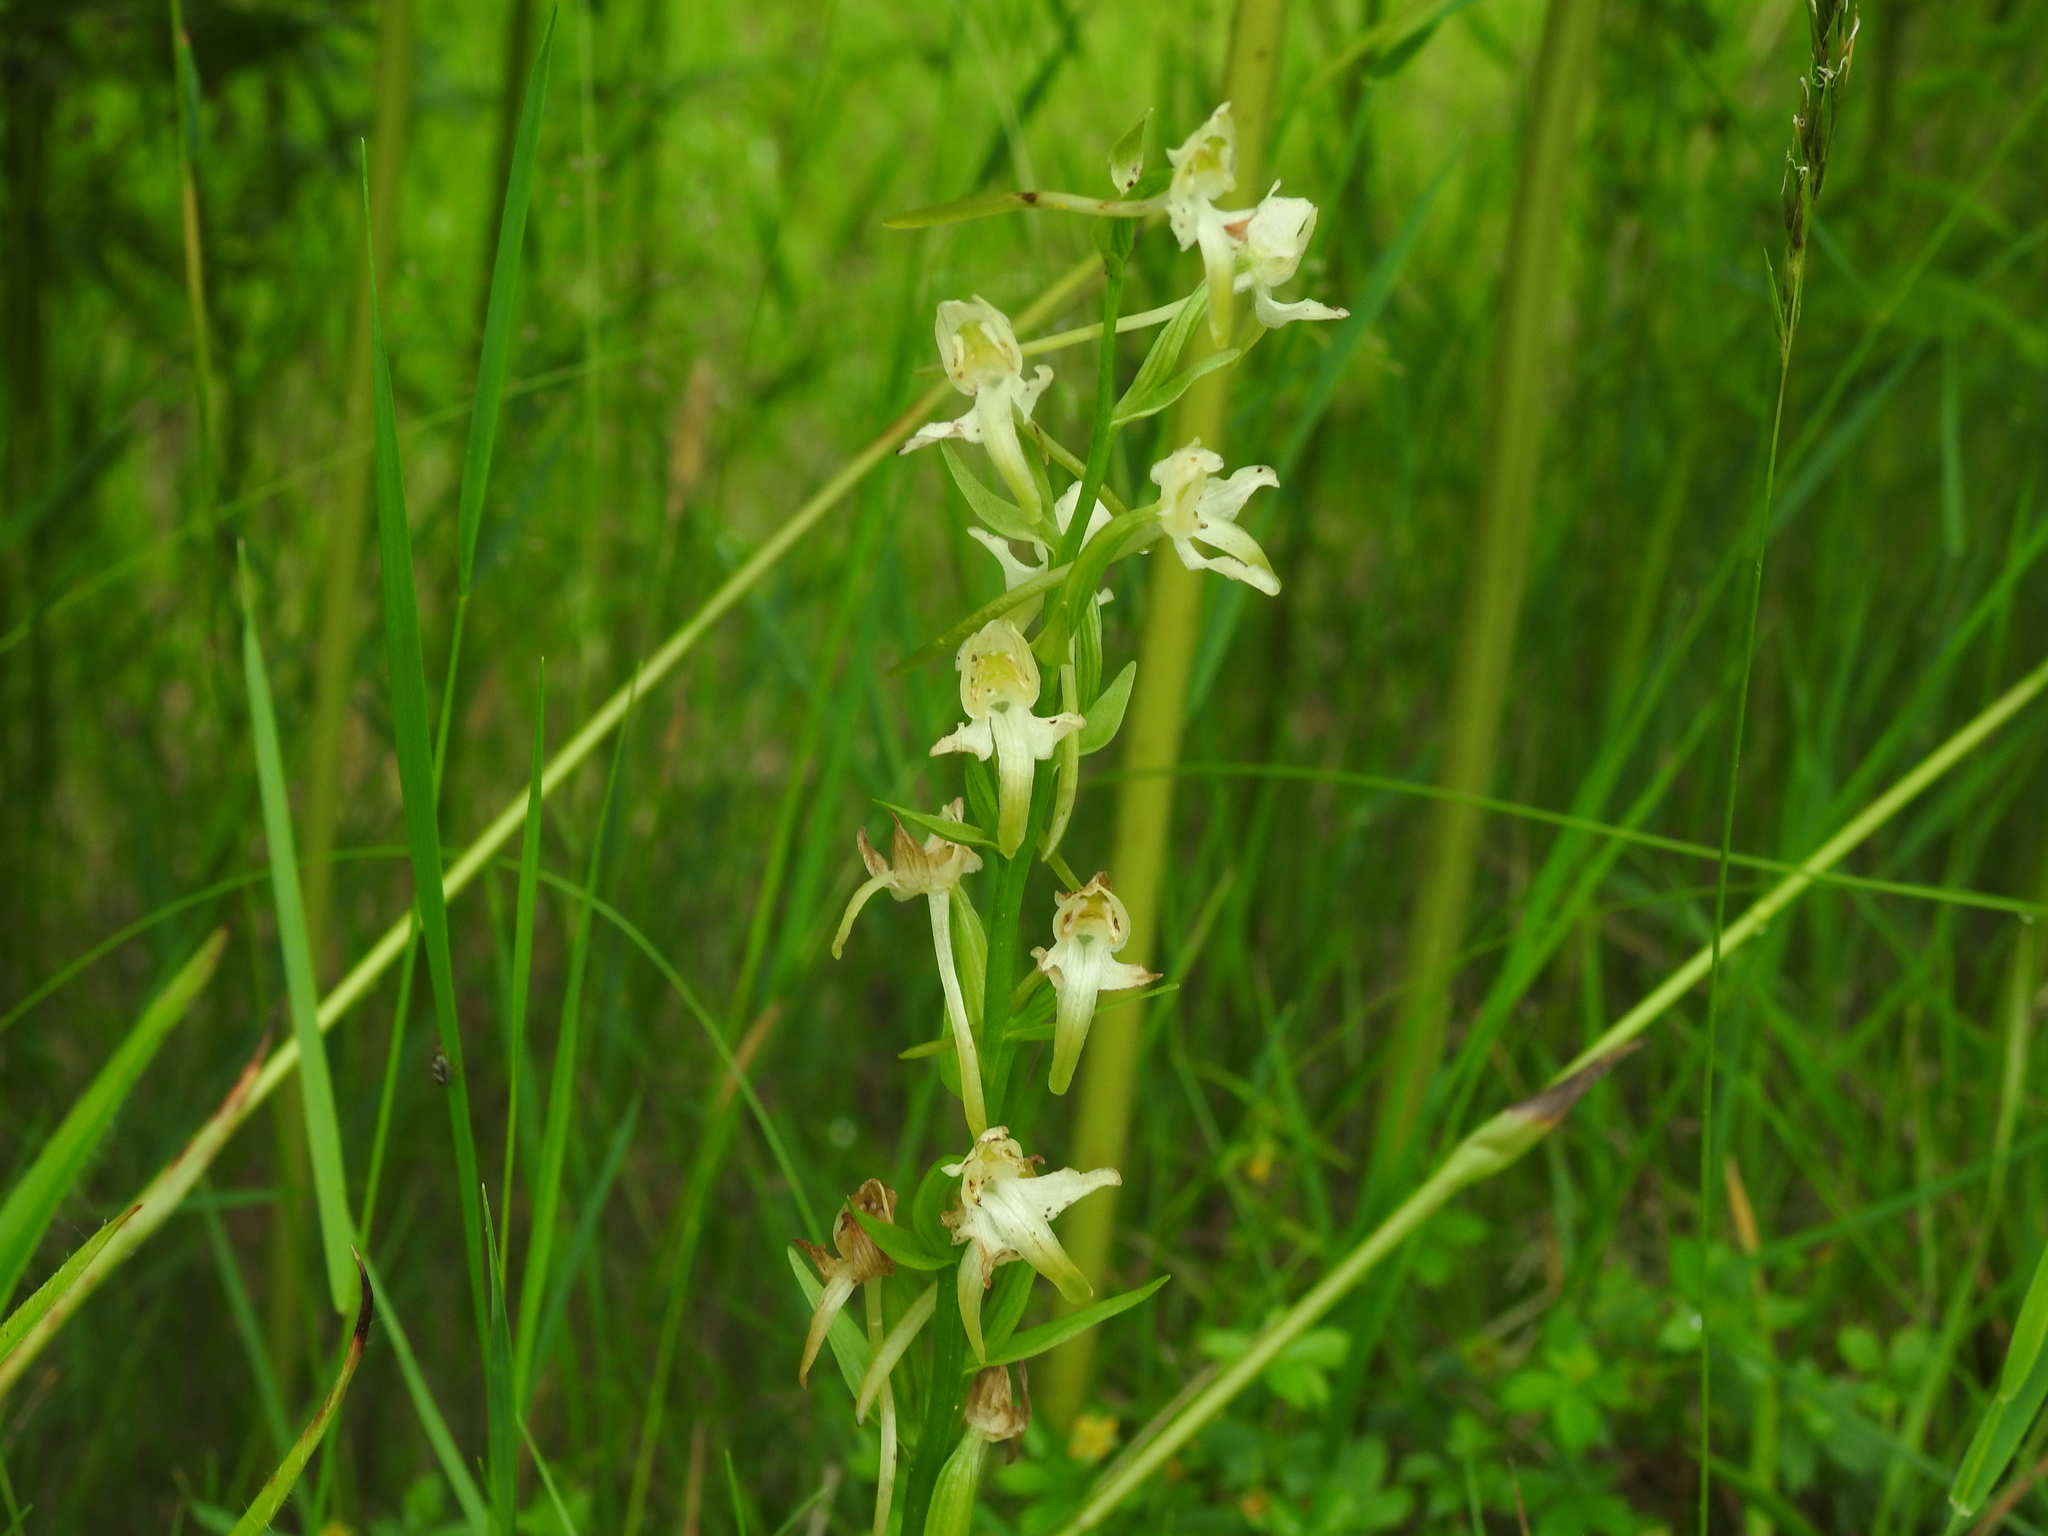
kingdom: Plantae
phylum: Tracheophyta
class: Liliopsida
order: Asparagales
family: Orchidaceae
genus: Platanthera
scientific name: Platanthera chlorantha
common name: Greater butterfly-orchid
